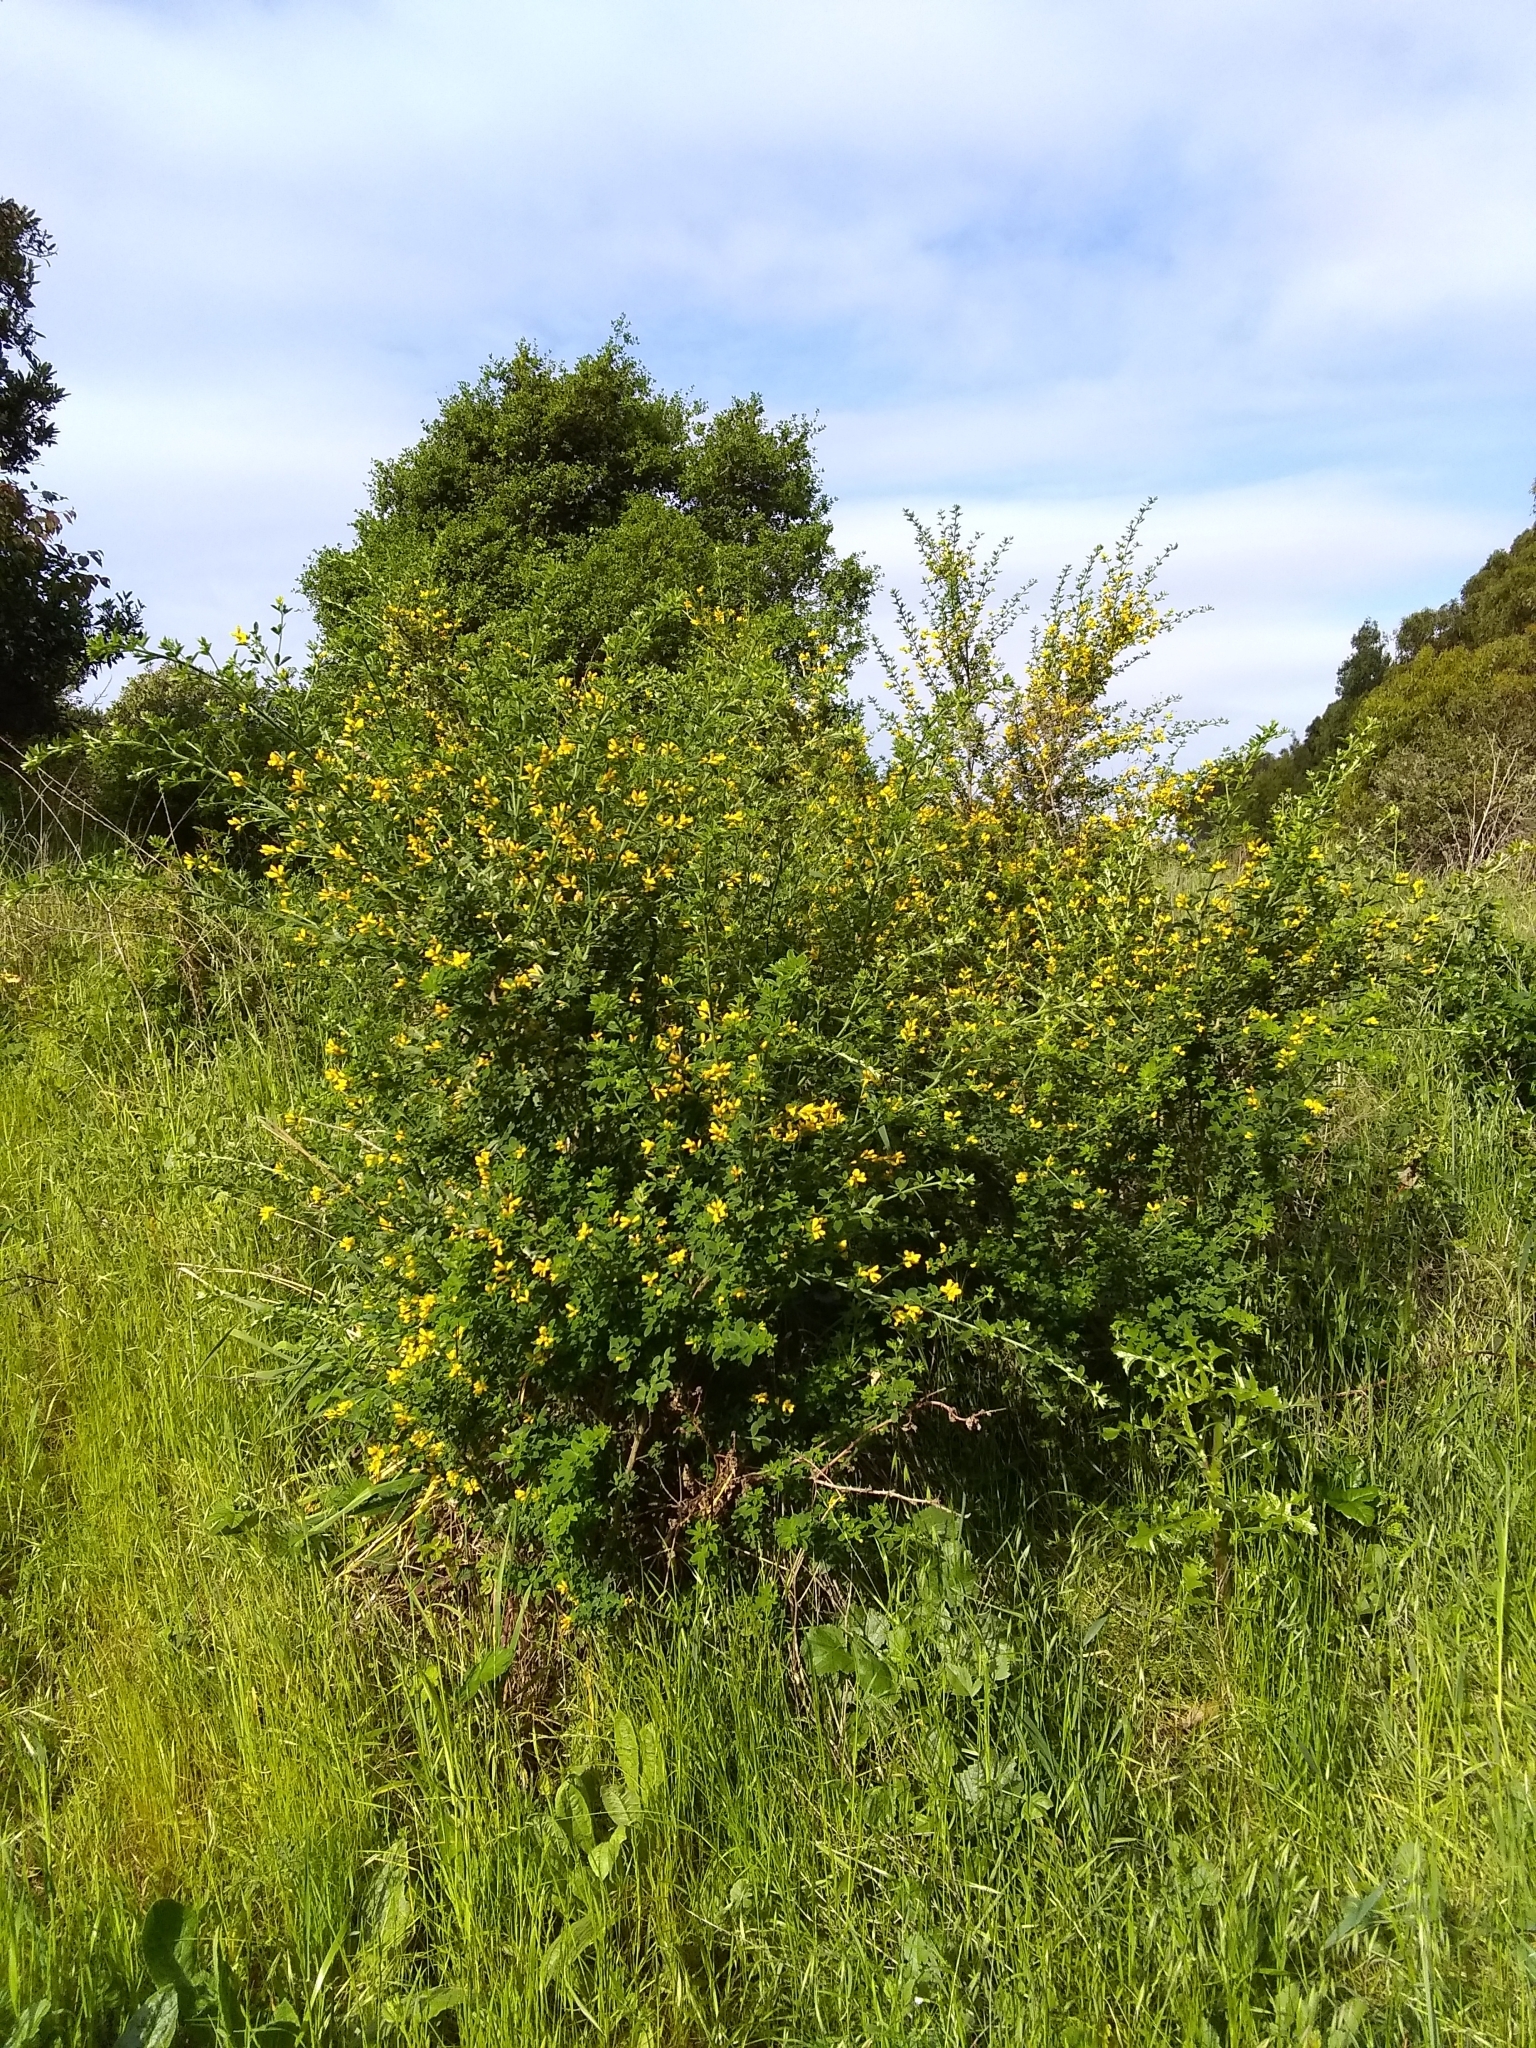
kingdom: Plantae
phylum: Tracheophyta
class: Magnoliopsida
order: Fabales
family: Fabaceae
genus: Genista
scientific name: Genista monspessulana
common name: Montpellier broom
